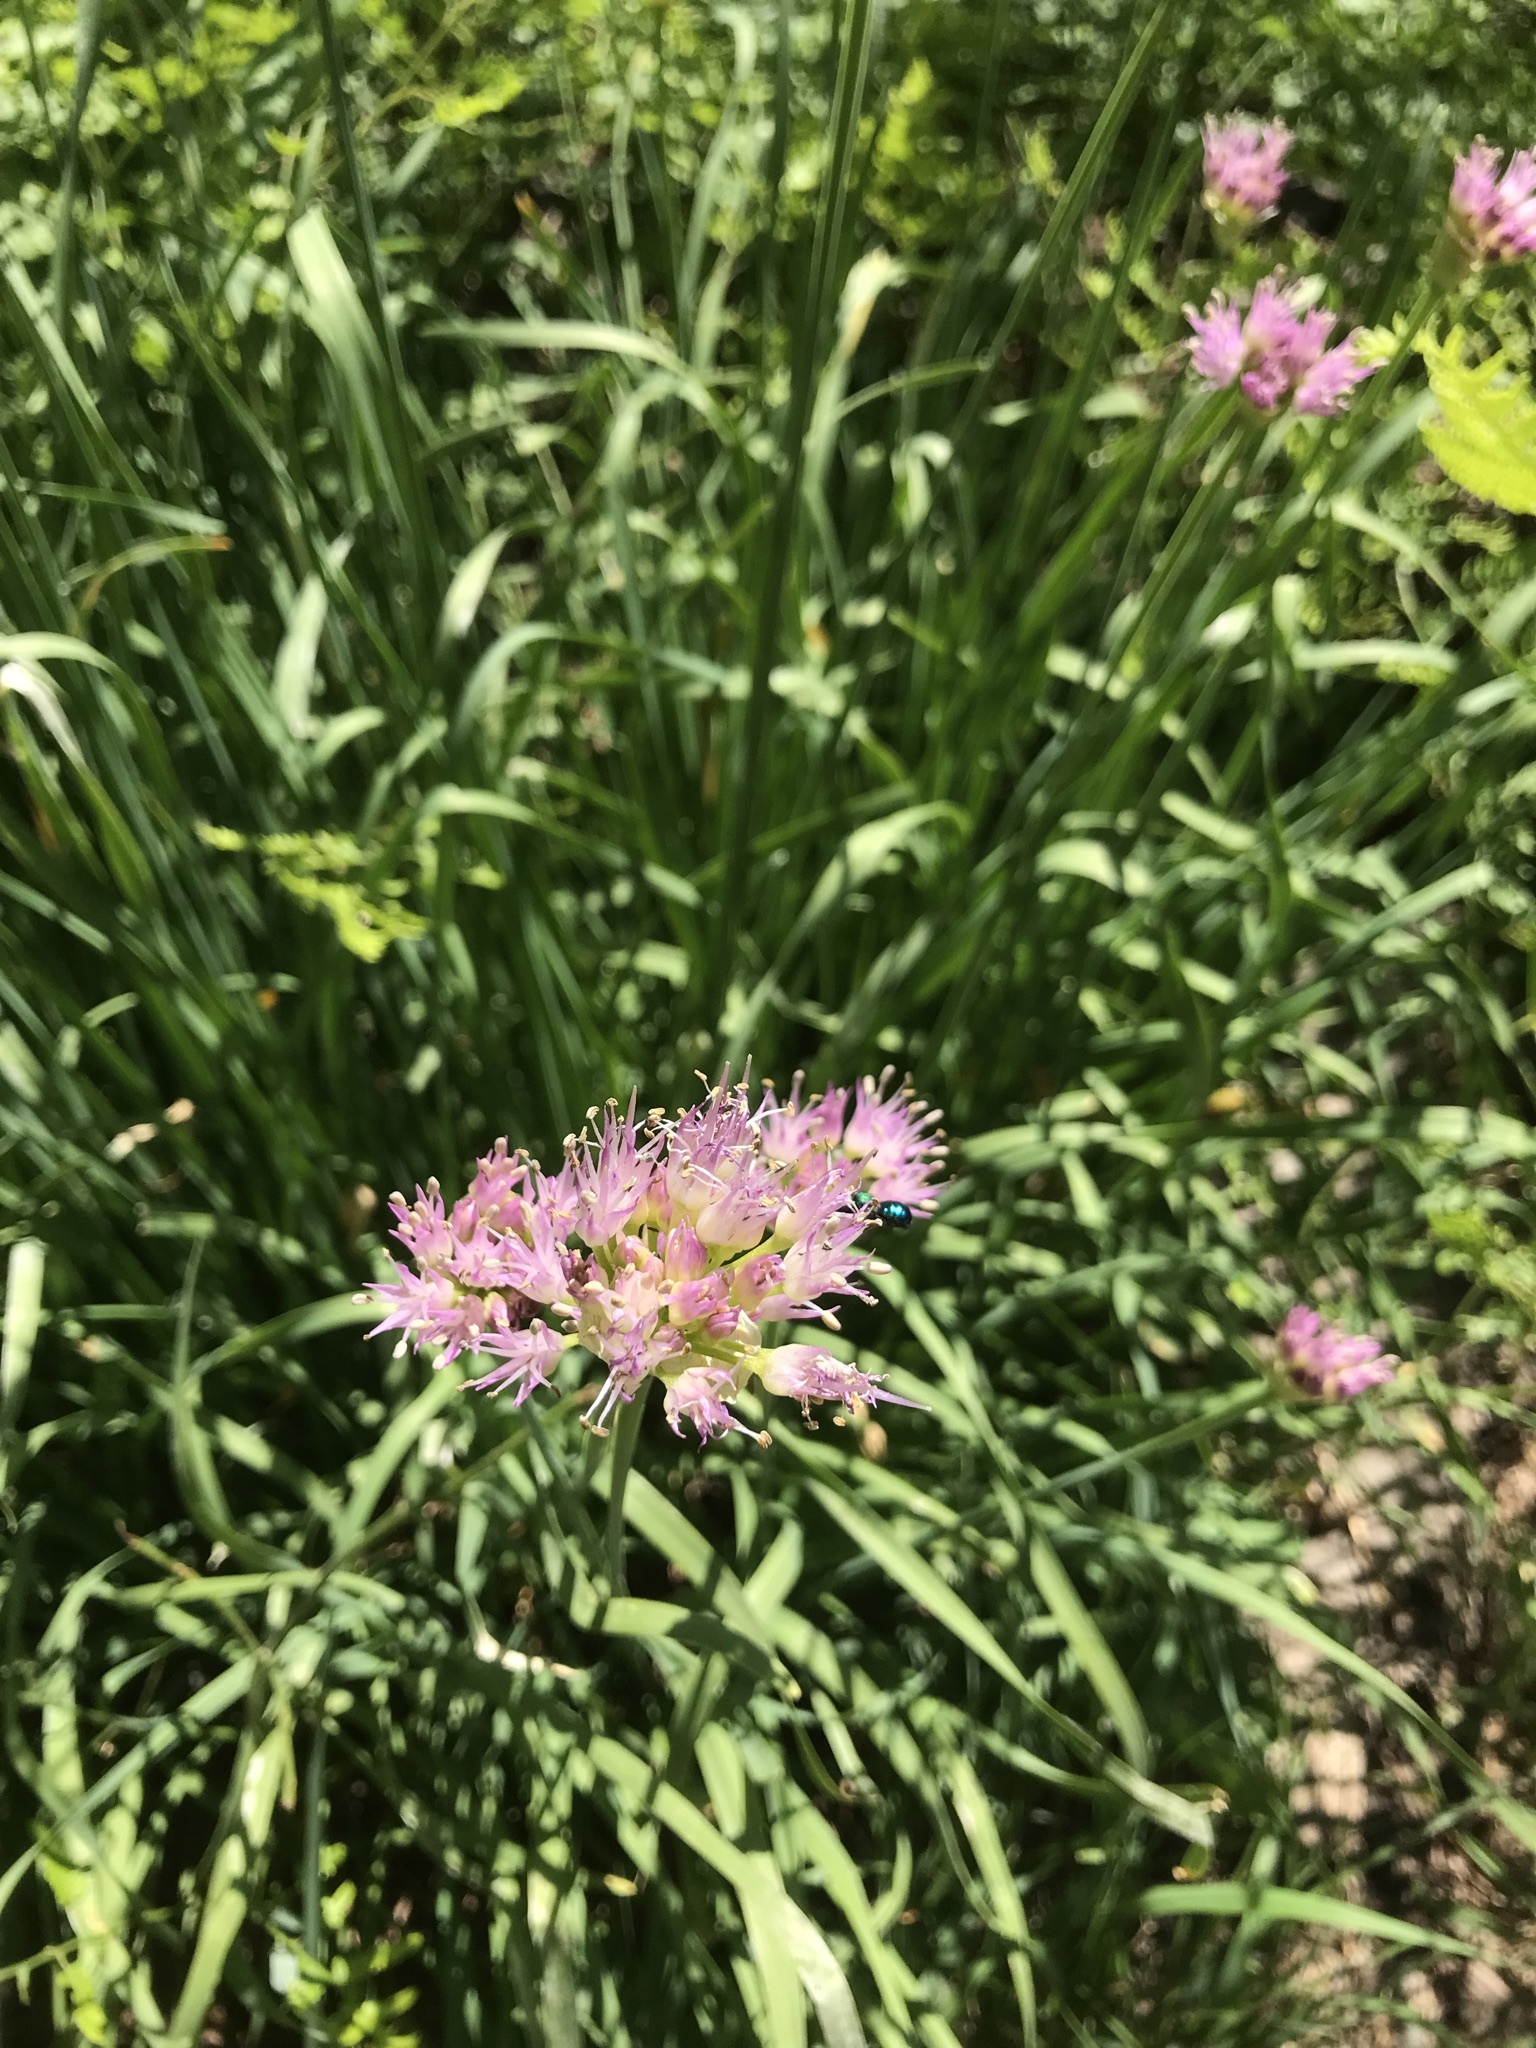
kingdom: Plantae
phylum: Tracheophyta
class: Liliopsida
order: Asparagales
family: Amaryllidaceae
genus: Allium
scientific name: Allium validum
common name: Pacific mountain onion
